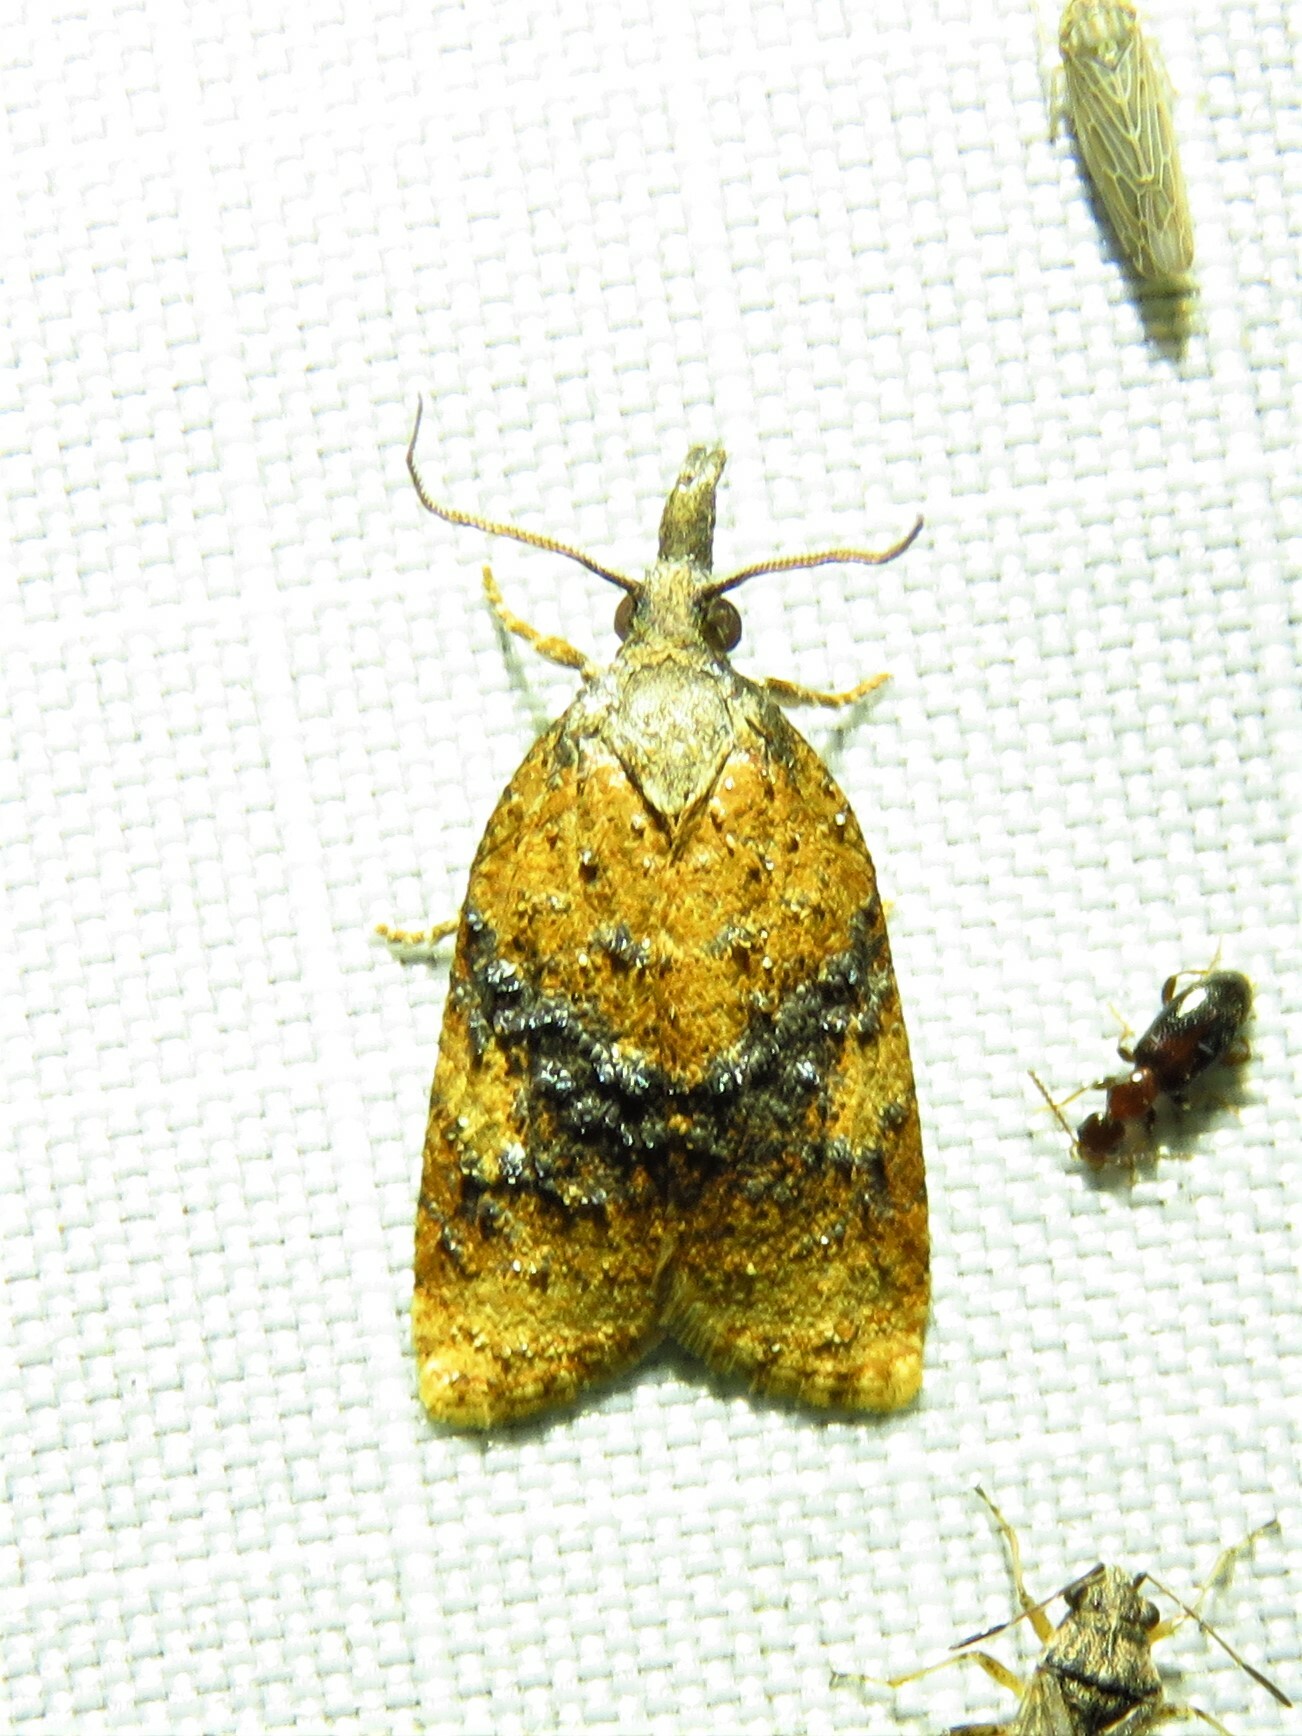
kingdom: Animalia
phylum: Arthropoda
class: Insecta
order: Lepidoptera
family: Tortricidae
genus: Platynota
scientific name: Platynota nigrocervina
